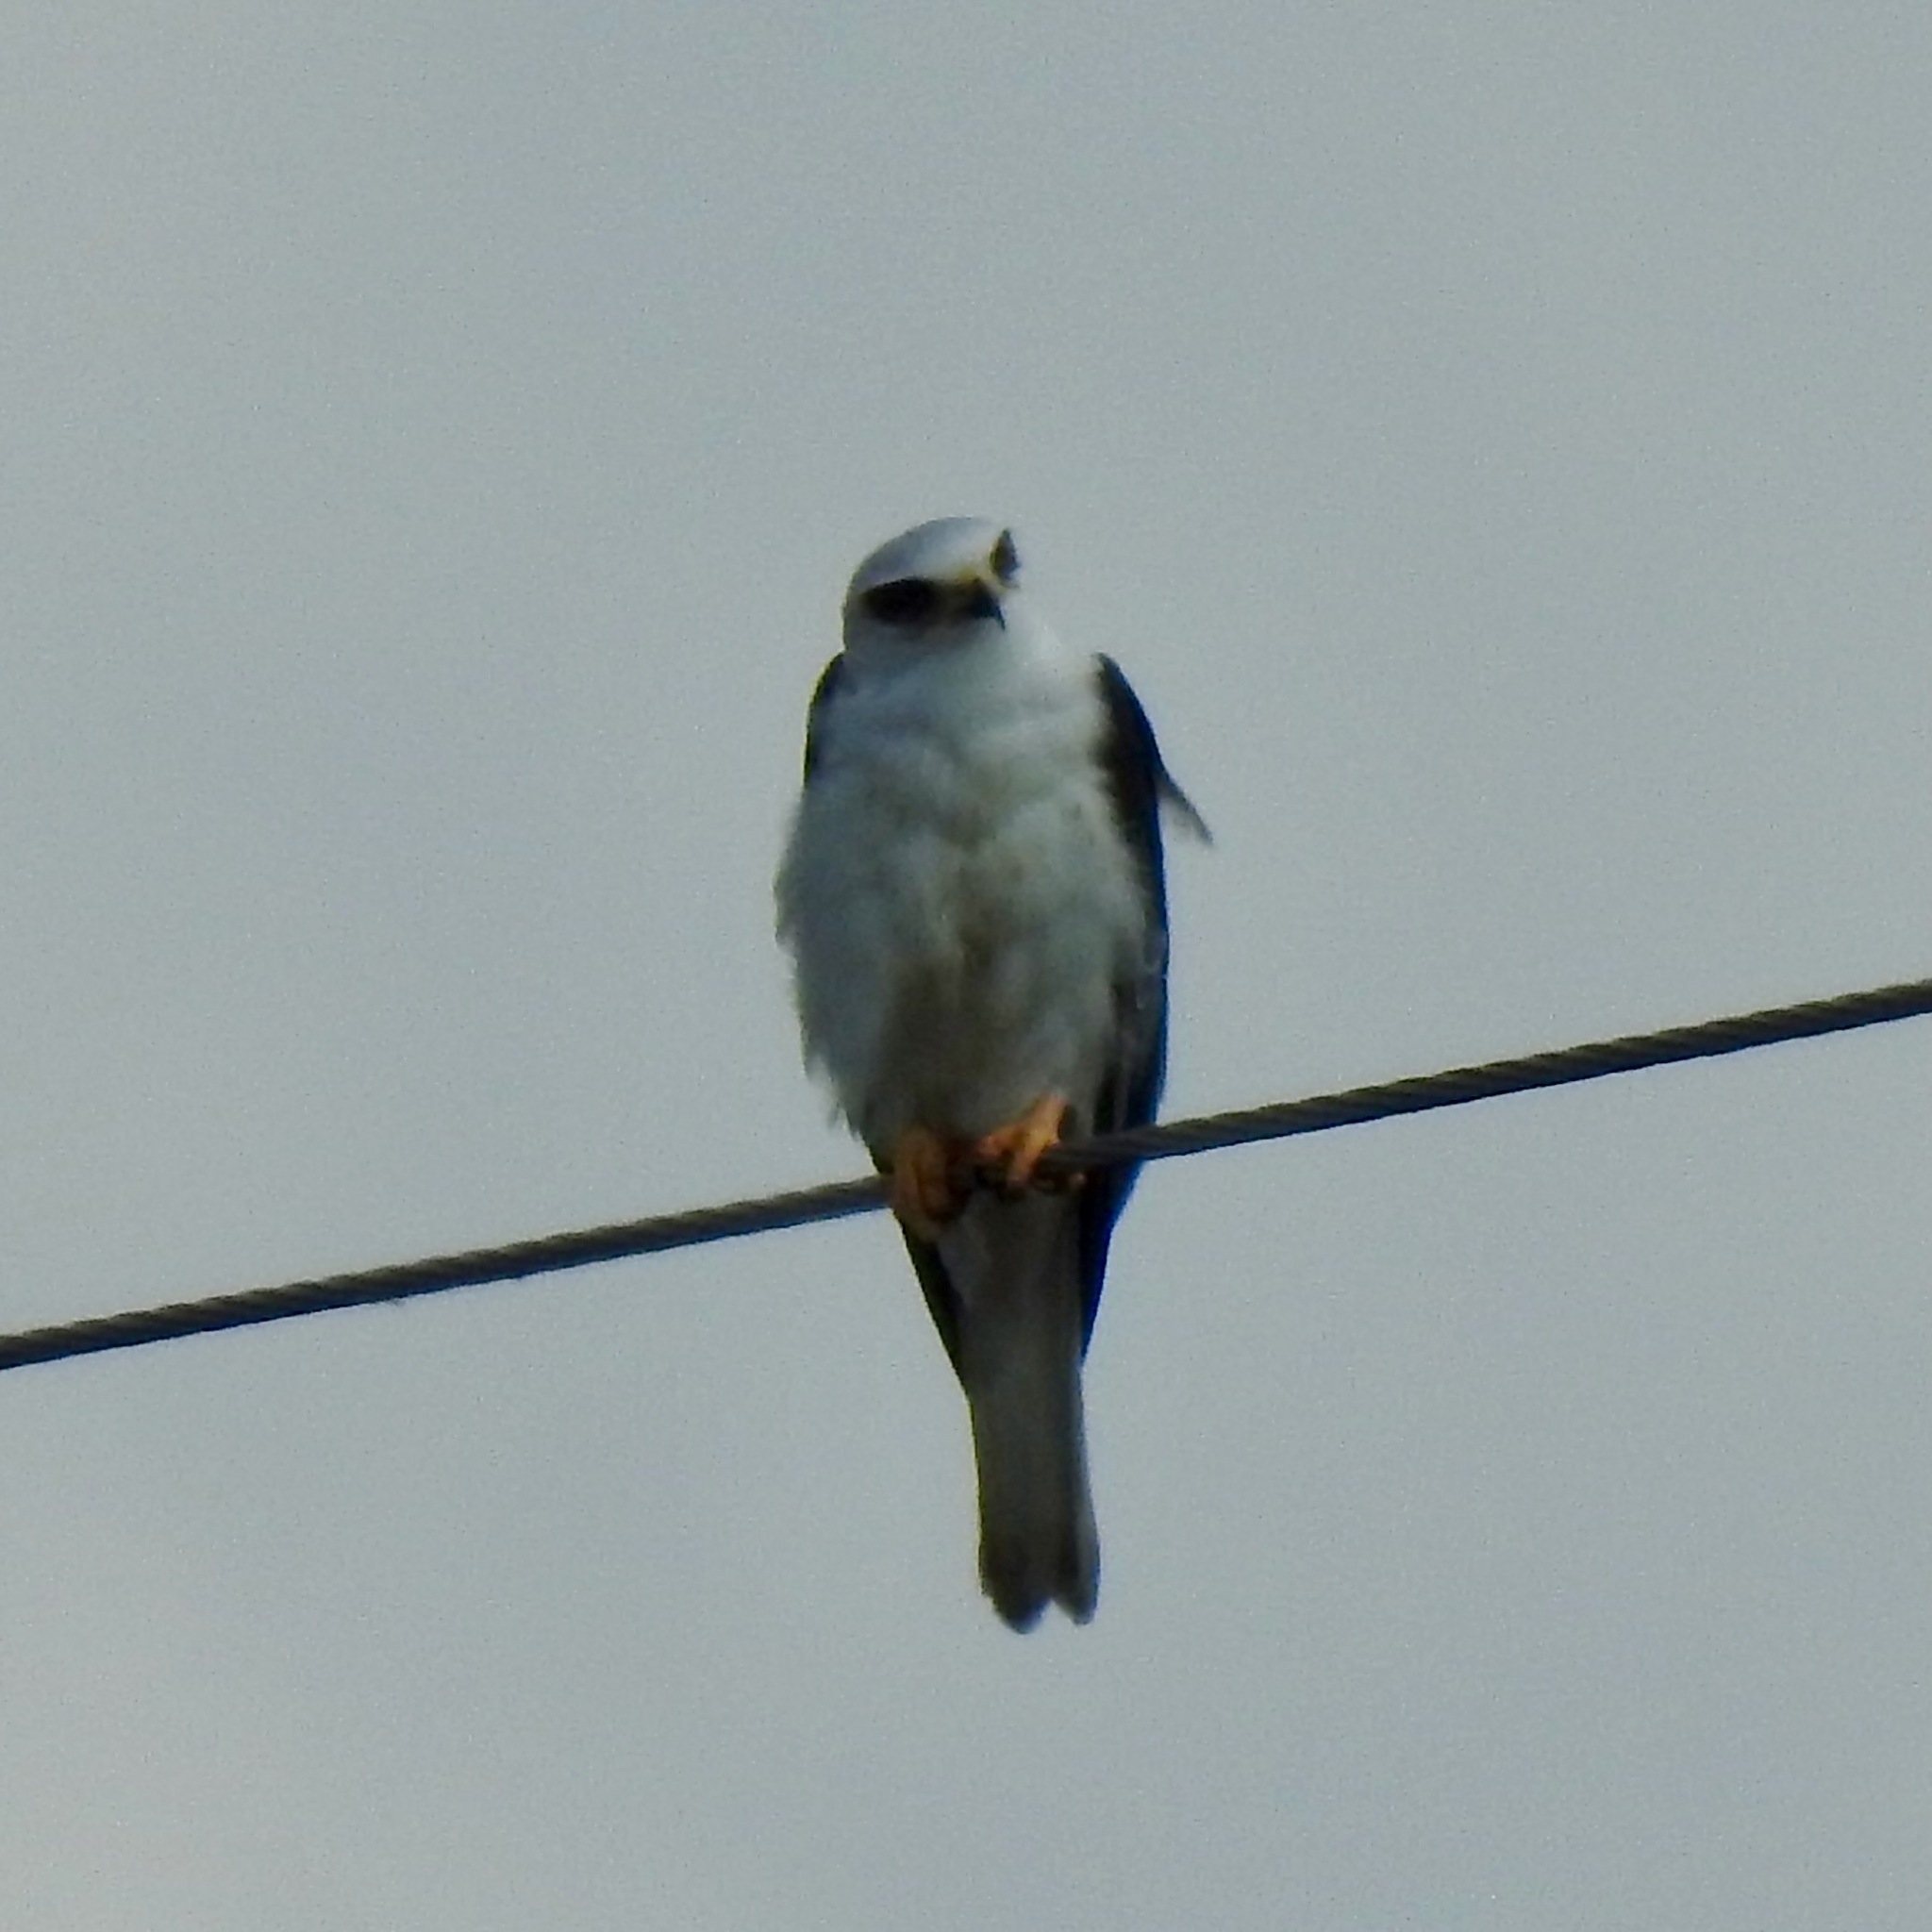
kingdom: Animalia
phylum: Chordata
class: Aves
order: Accipitriformes
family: Accipitridae
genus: Elanus
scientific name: Elanus leucurus
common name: White-tailed kite
